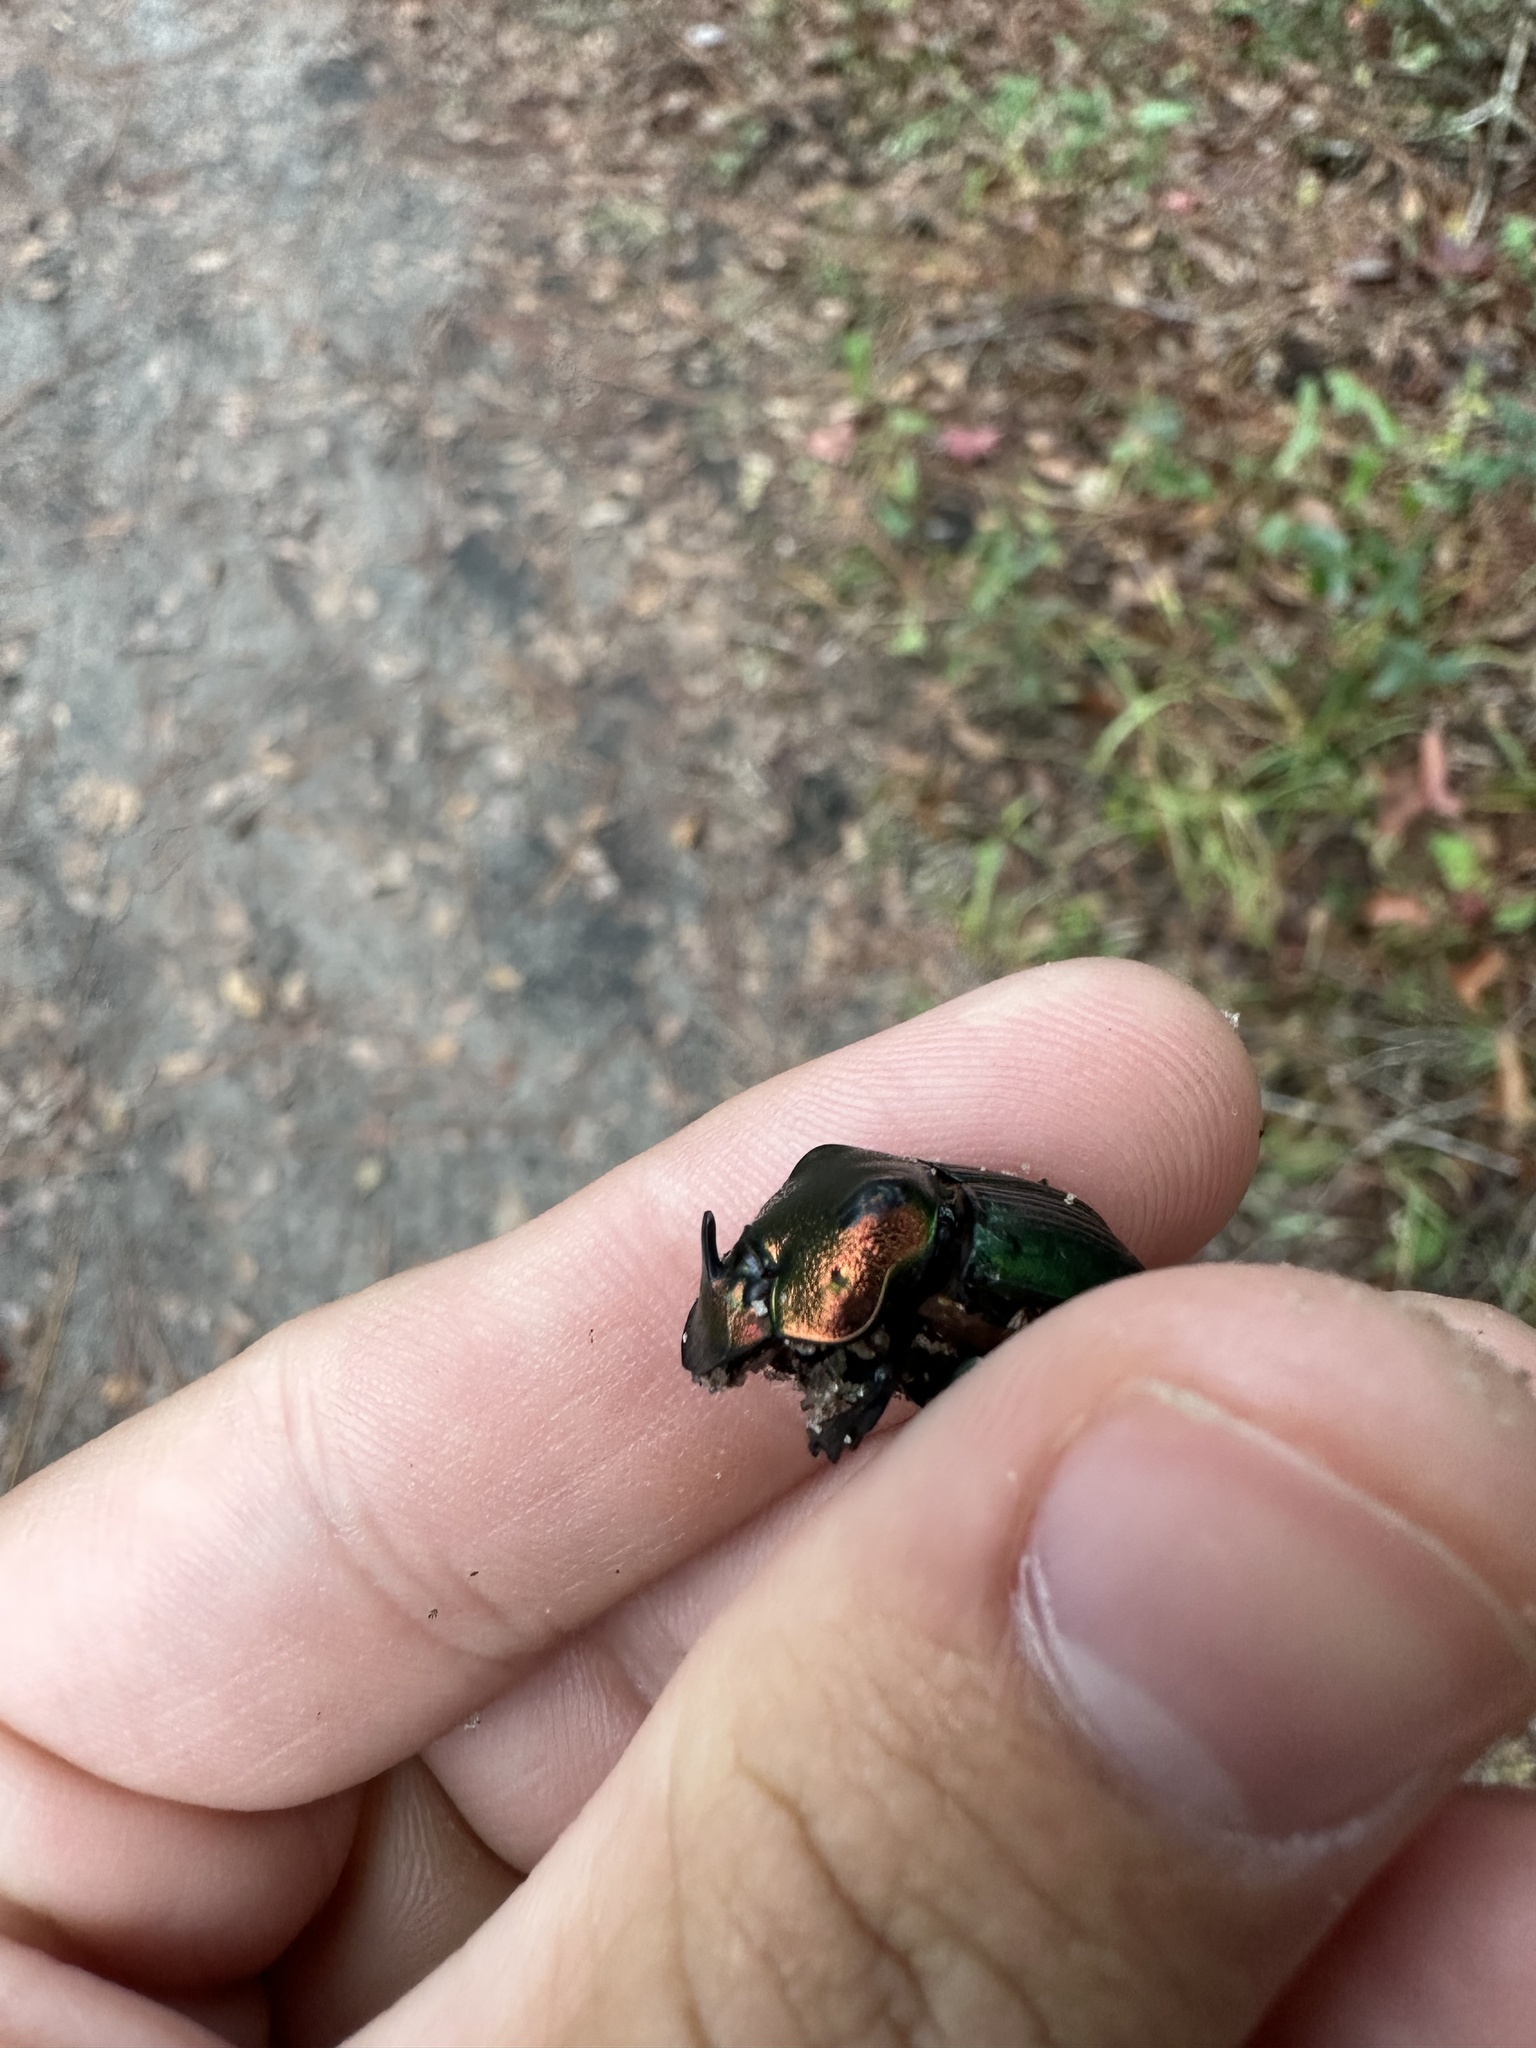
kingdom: Animalia
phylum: Arthropoda
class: Insecta
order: Coleoptera
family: Scarabaeidae
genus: Phanaeus
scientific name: Phanaeus igneus
